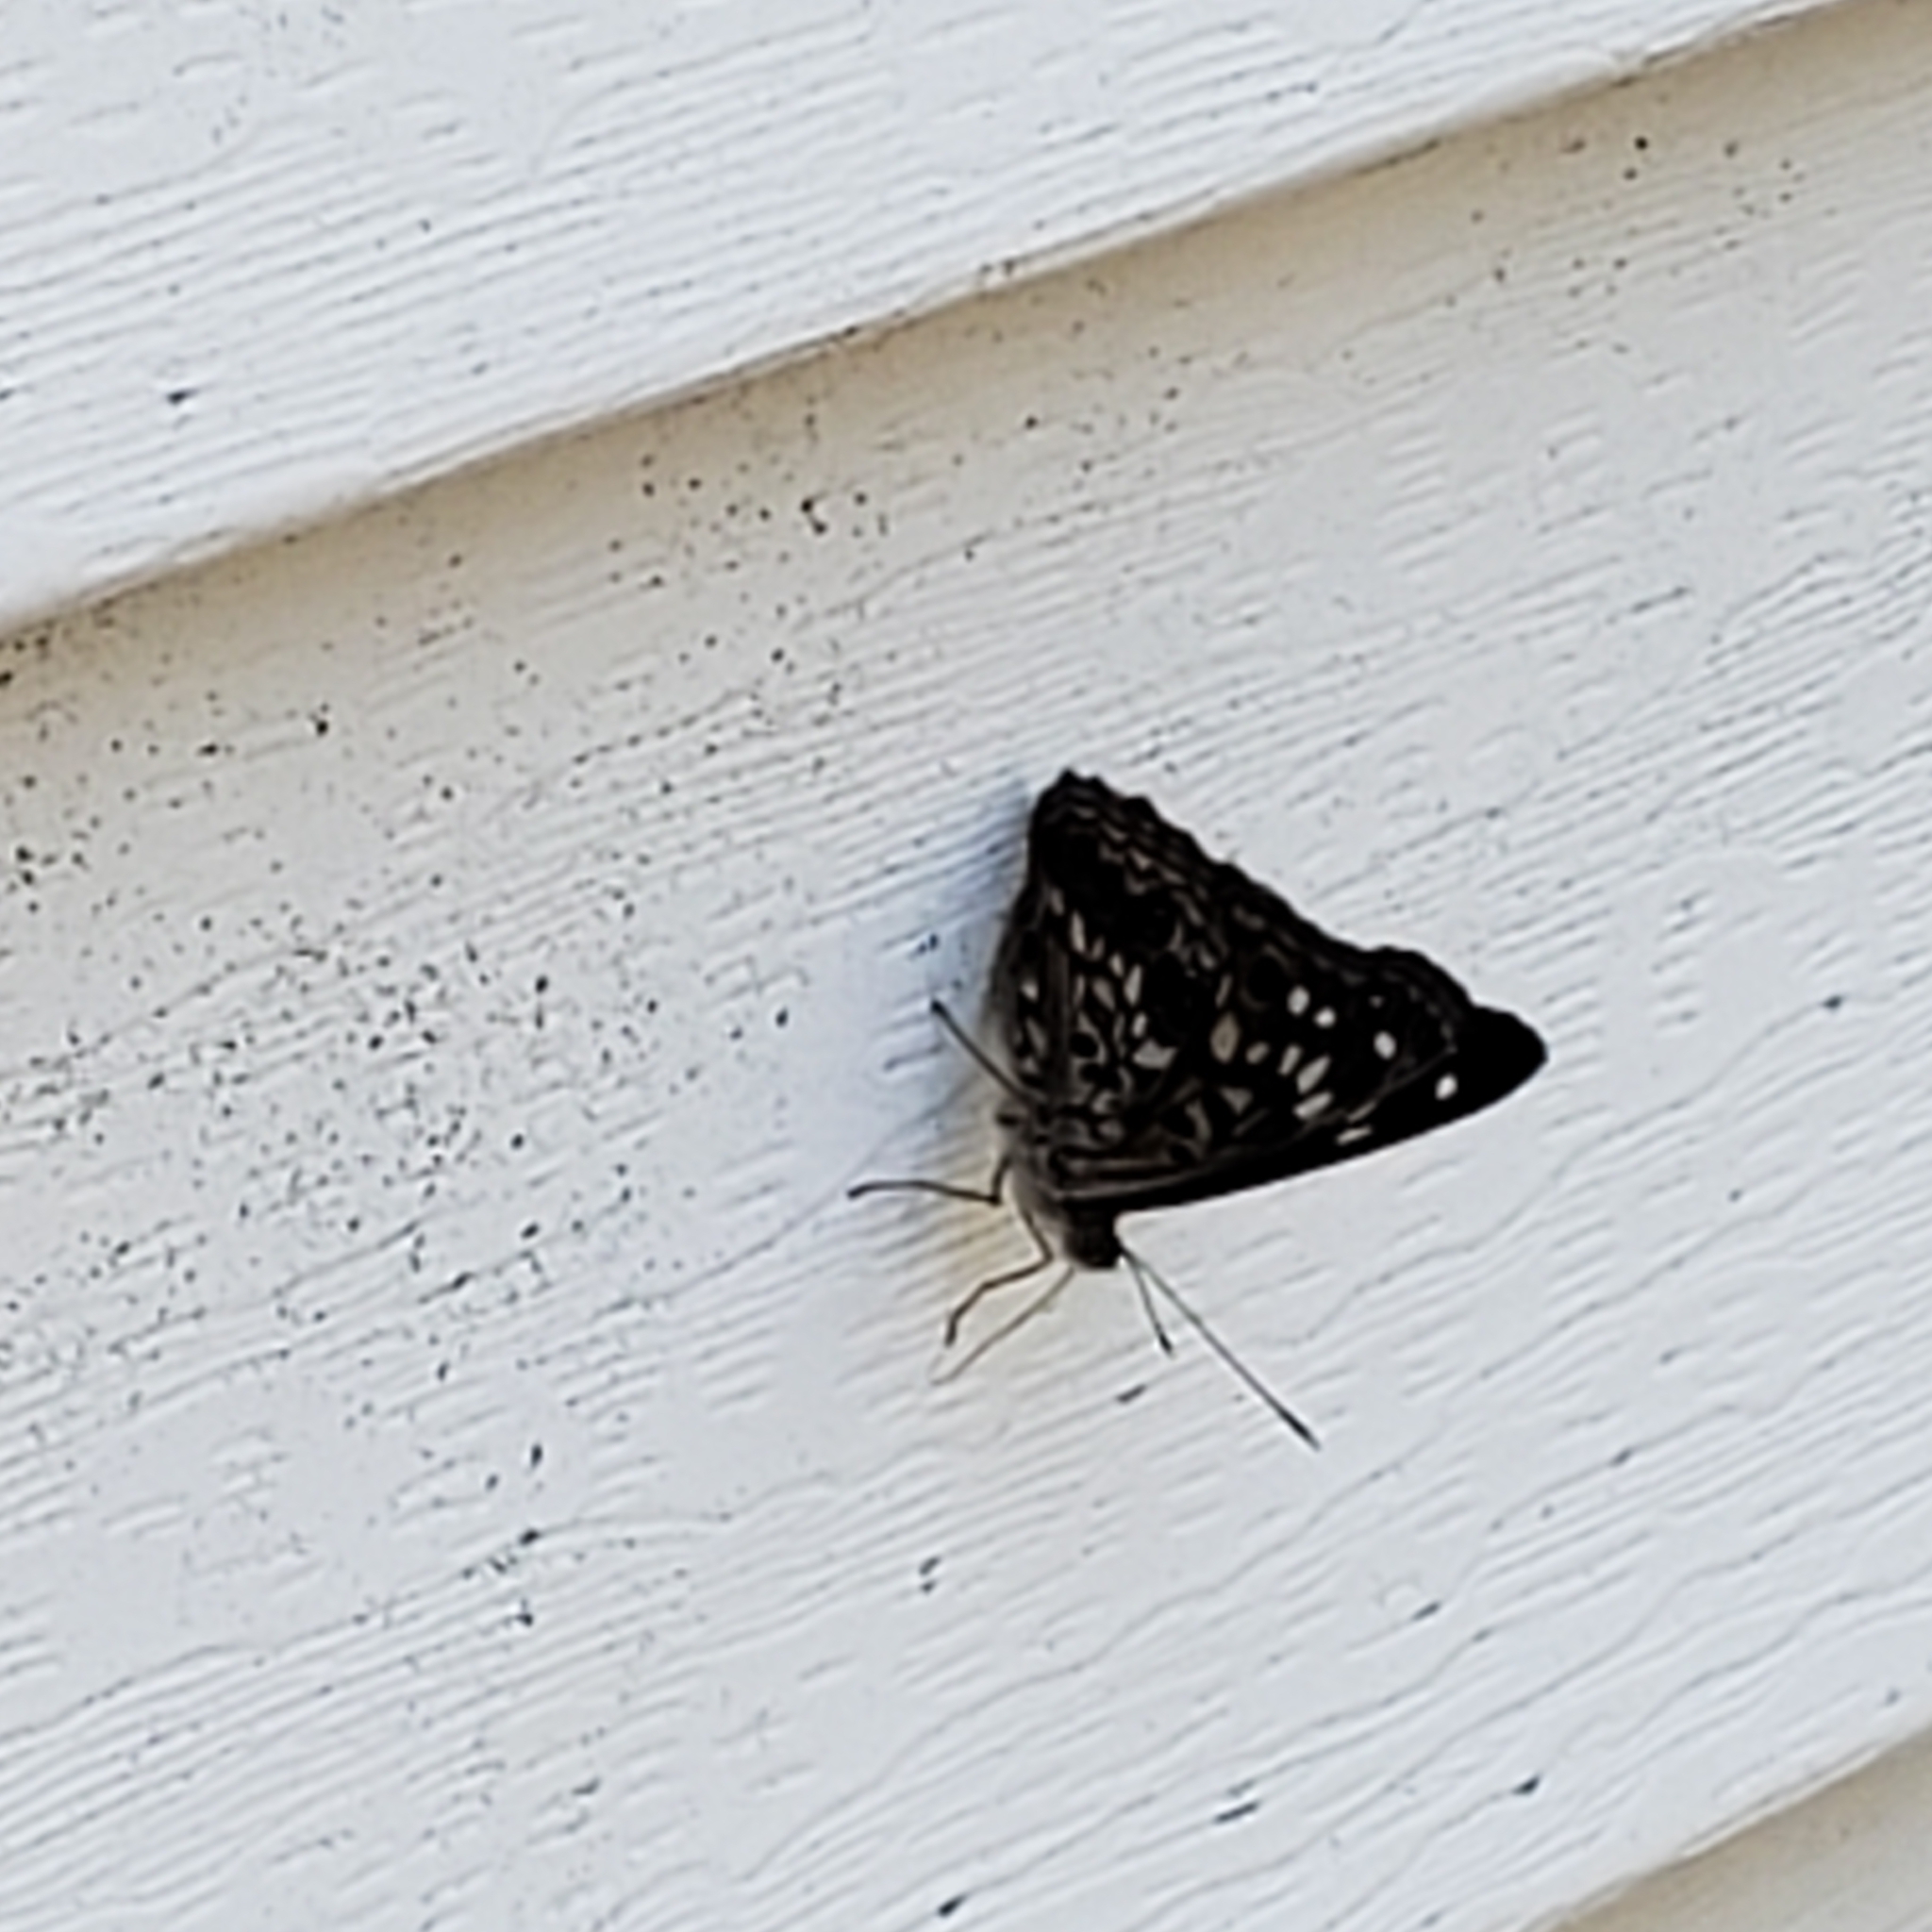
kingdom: Animalia
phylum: Arthropoda
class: Insecta
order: Lepidoptera
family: Nymphalidae
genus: Asterocampa
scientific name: Asterocampa celtis
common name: Hackberry emperor
